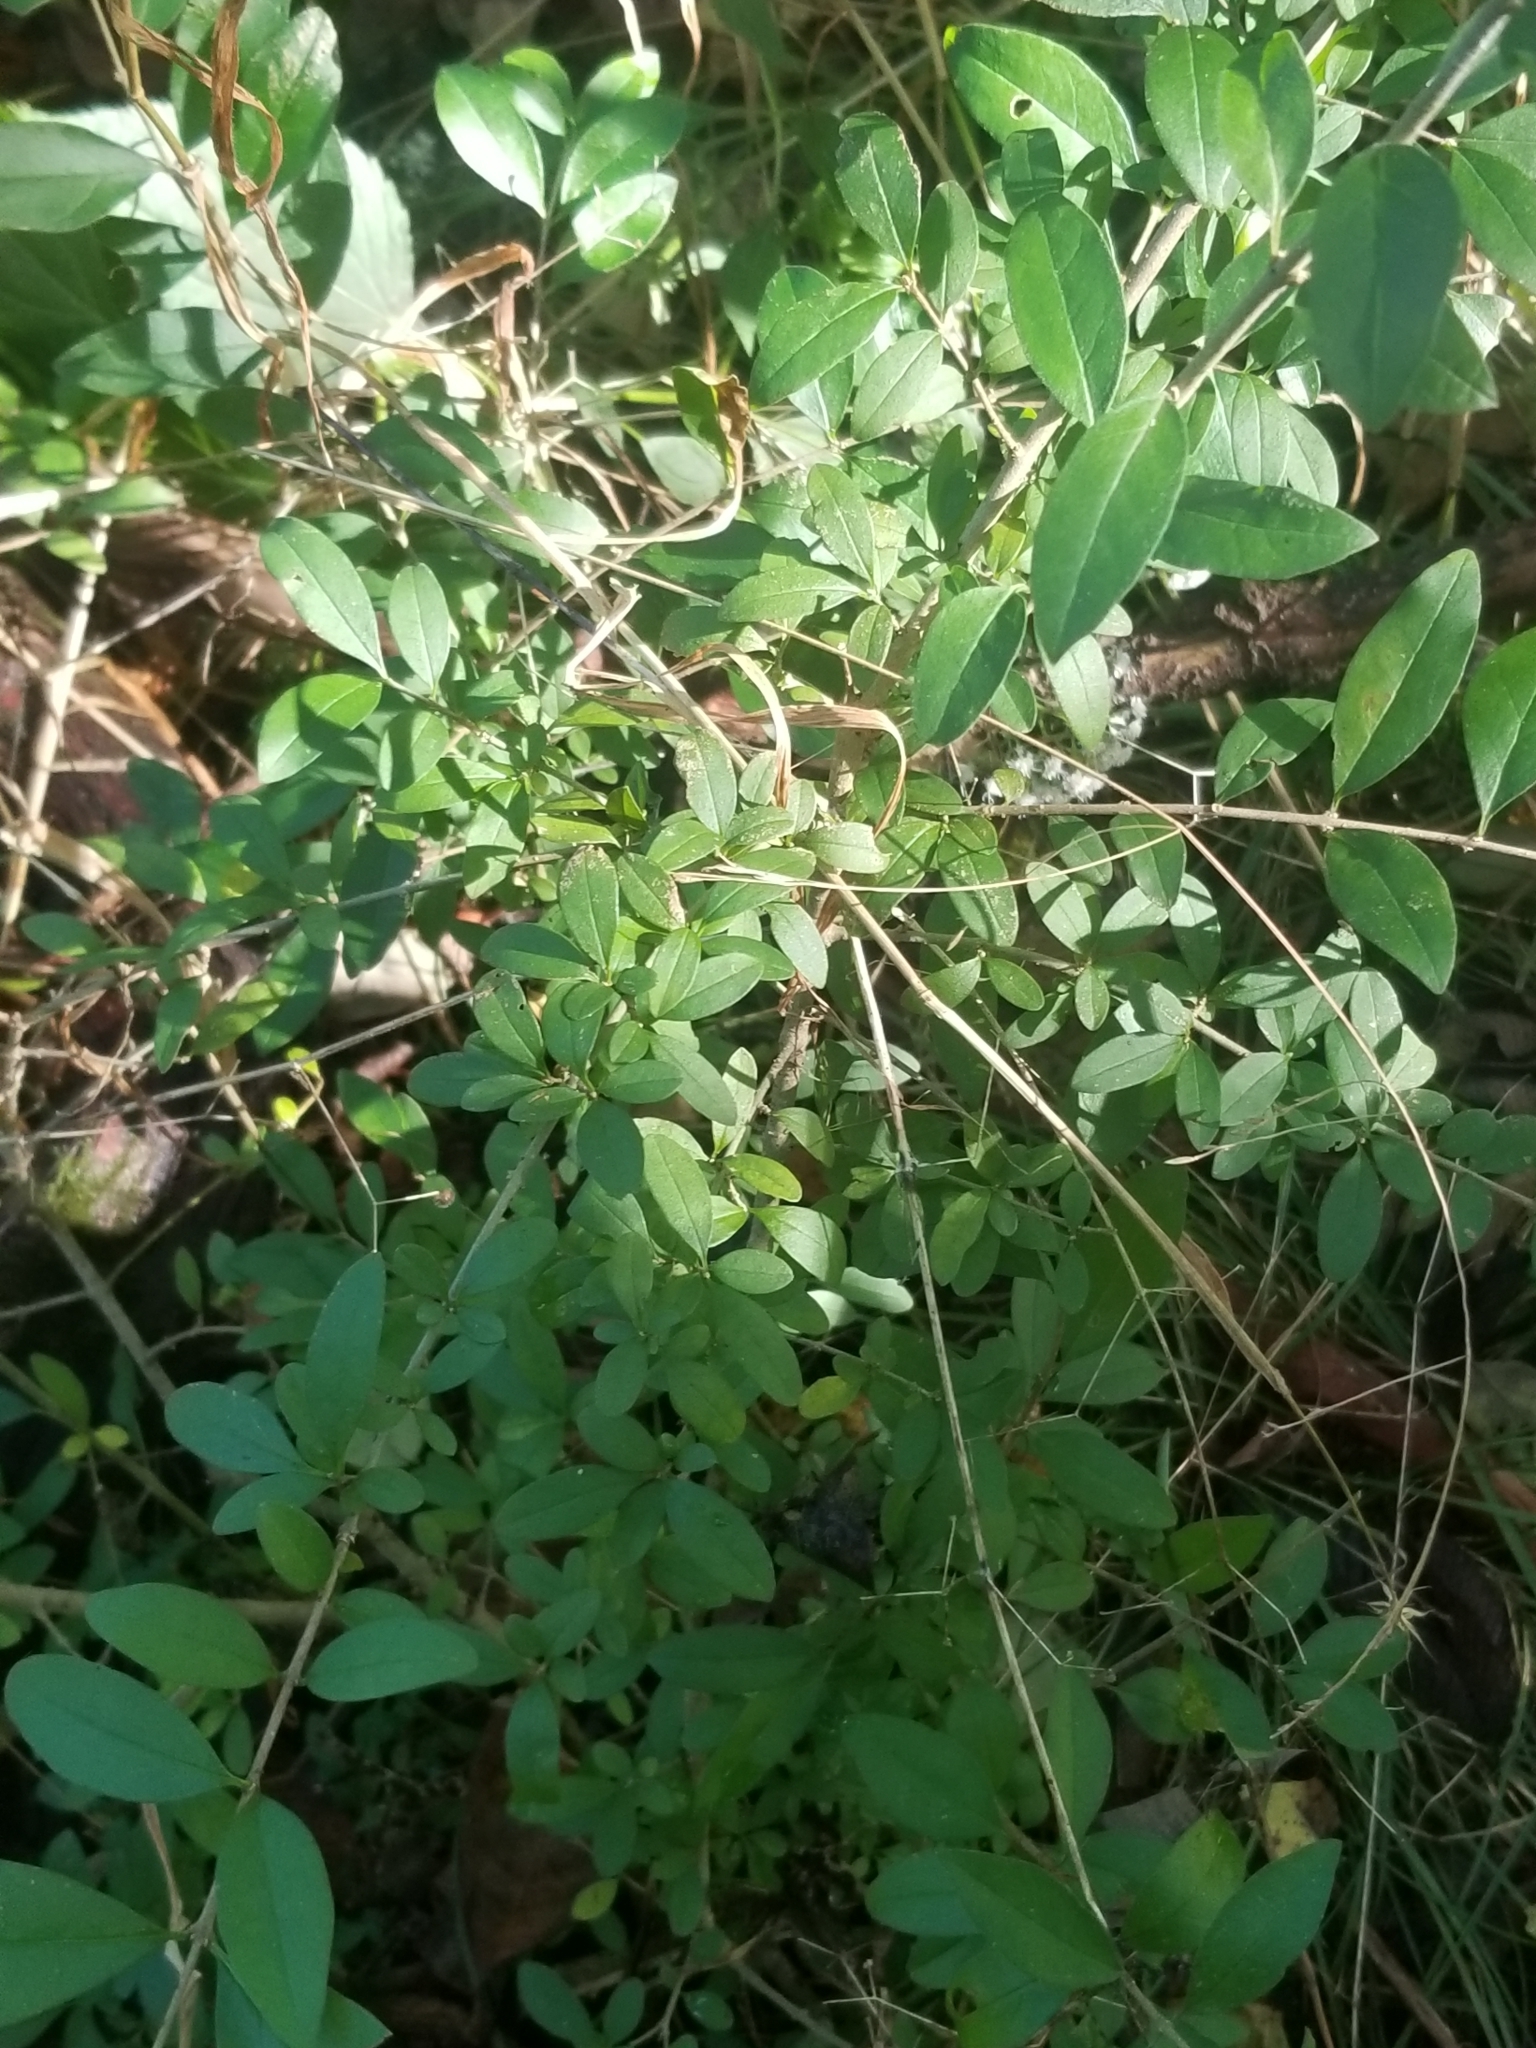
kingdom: Plantae
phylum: Tracheophyta
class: Magnoliopsida
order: Lamiales
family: Oleaceae
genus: Ligustrum
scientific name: Ligustrum obtusifolium
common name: Border privet
